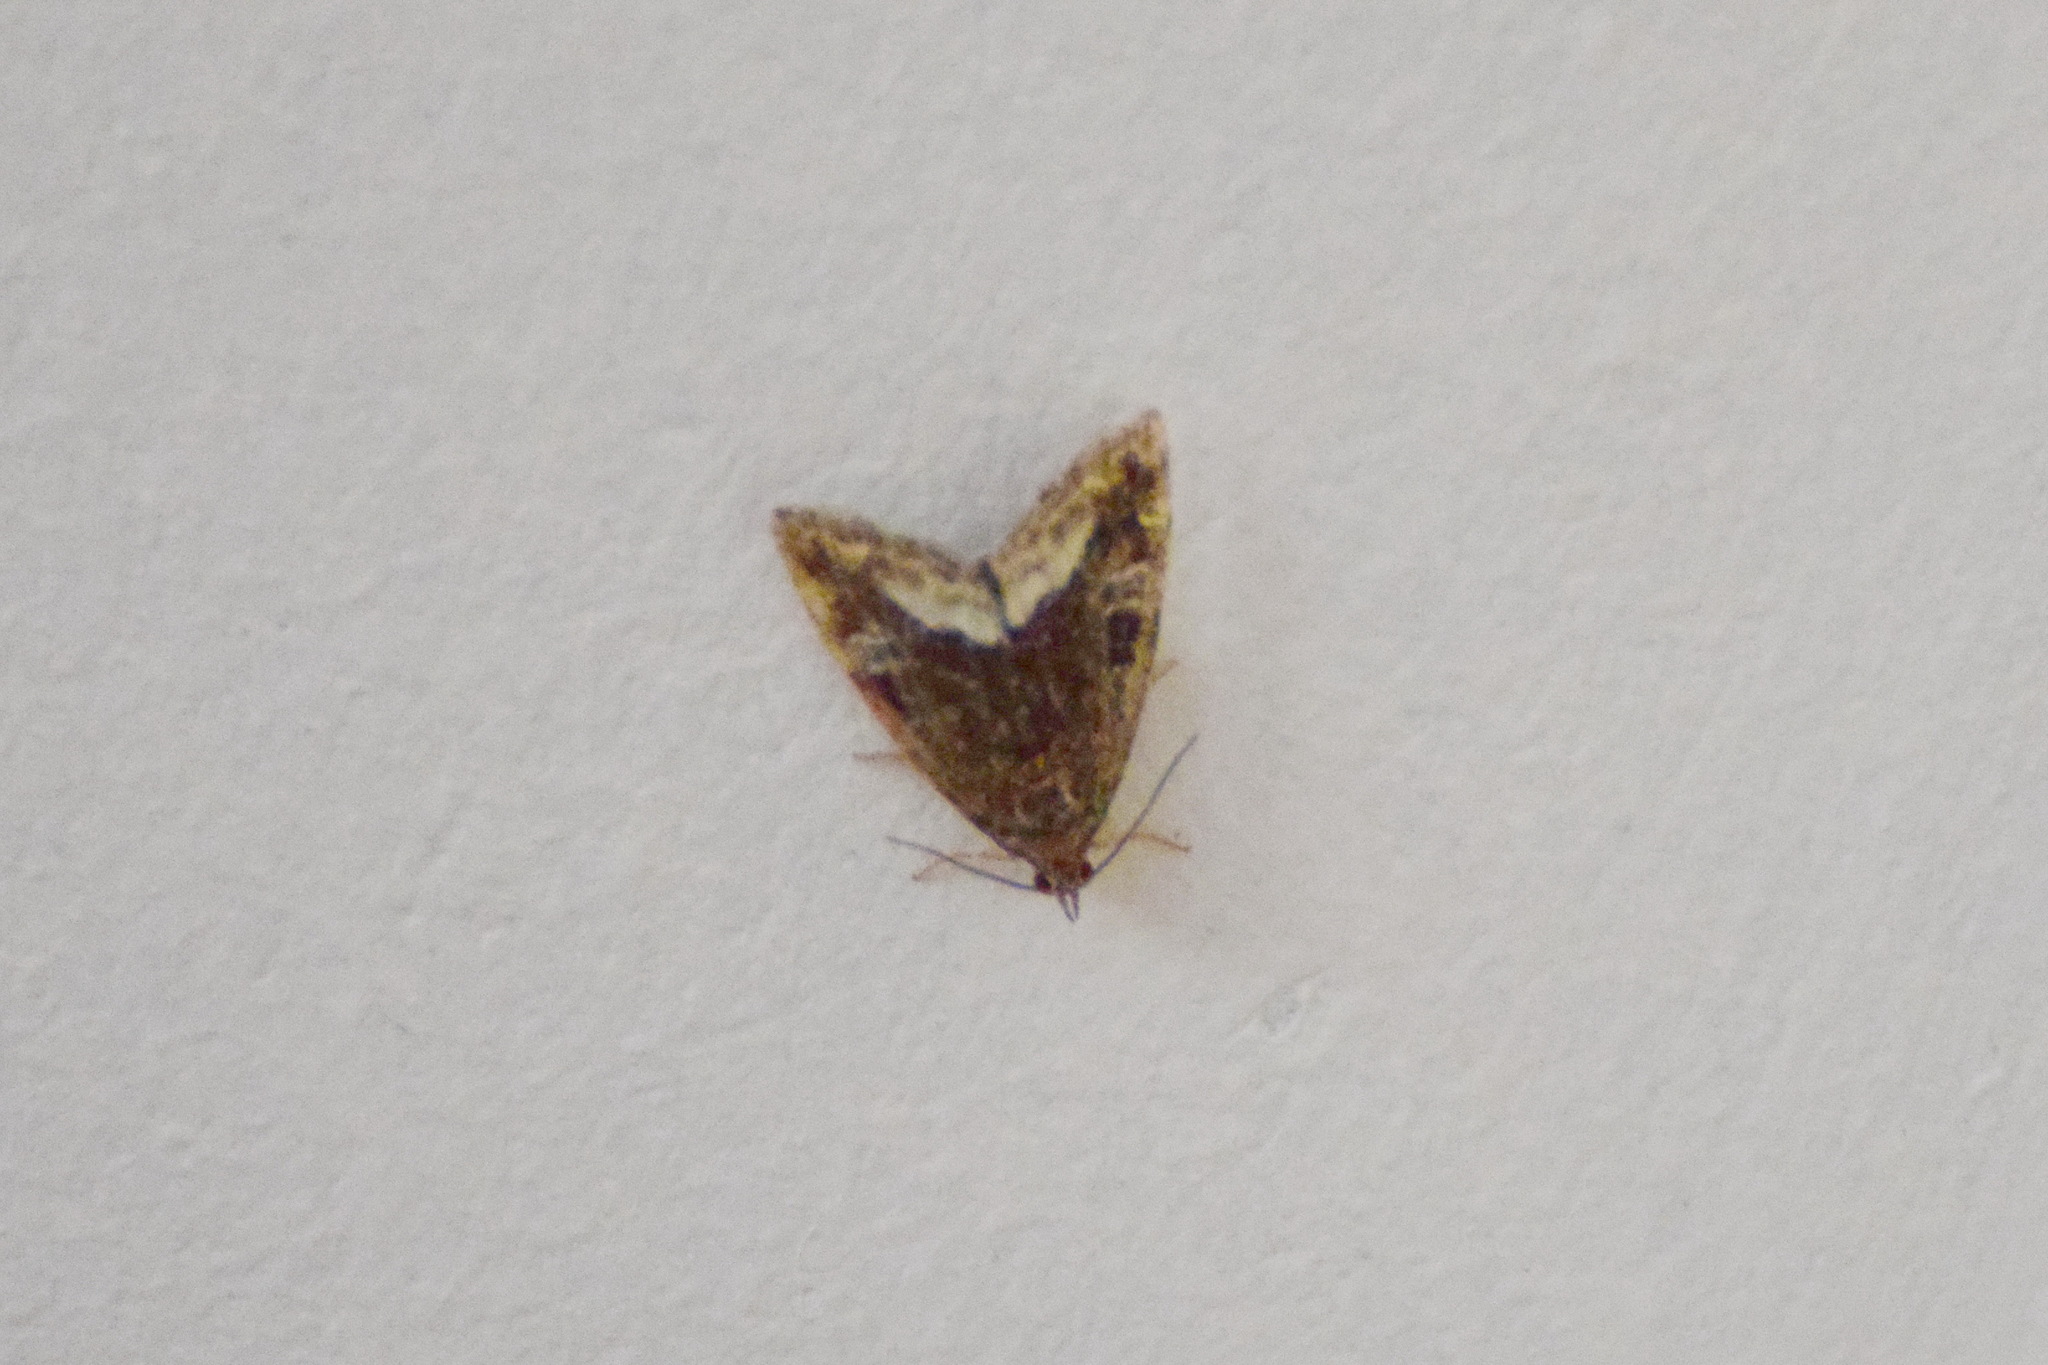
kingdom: Animalia
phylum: Arthropoda
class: Insecta
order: Lepidoptera
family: Noctuidae
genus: Deltote
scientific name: Deltote pygarga
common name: Marbled white spot
